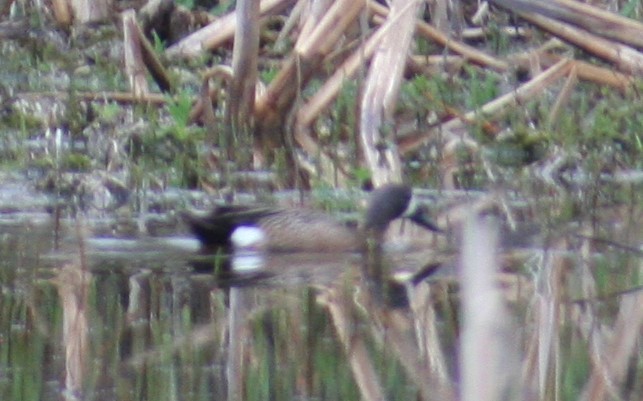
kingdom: Animalia
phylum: Chordata
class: Aves
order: Anseriformes
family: Anatidae
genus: Spatula
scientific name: Spatula discors
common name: Blue-winged teal
